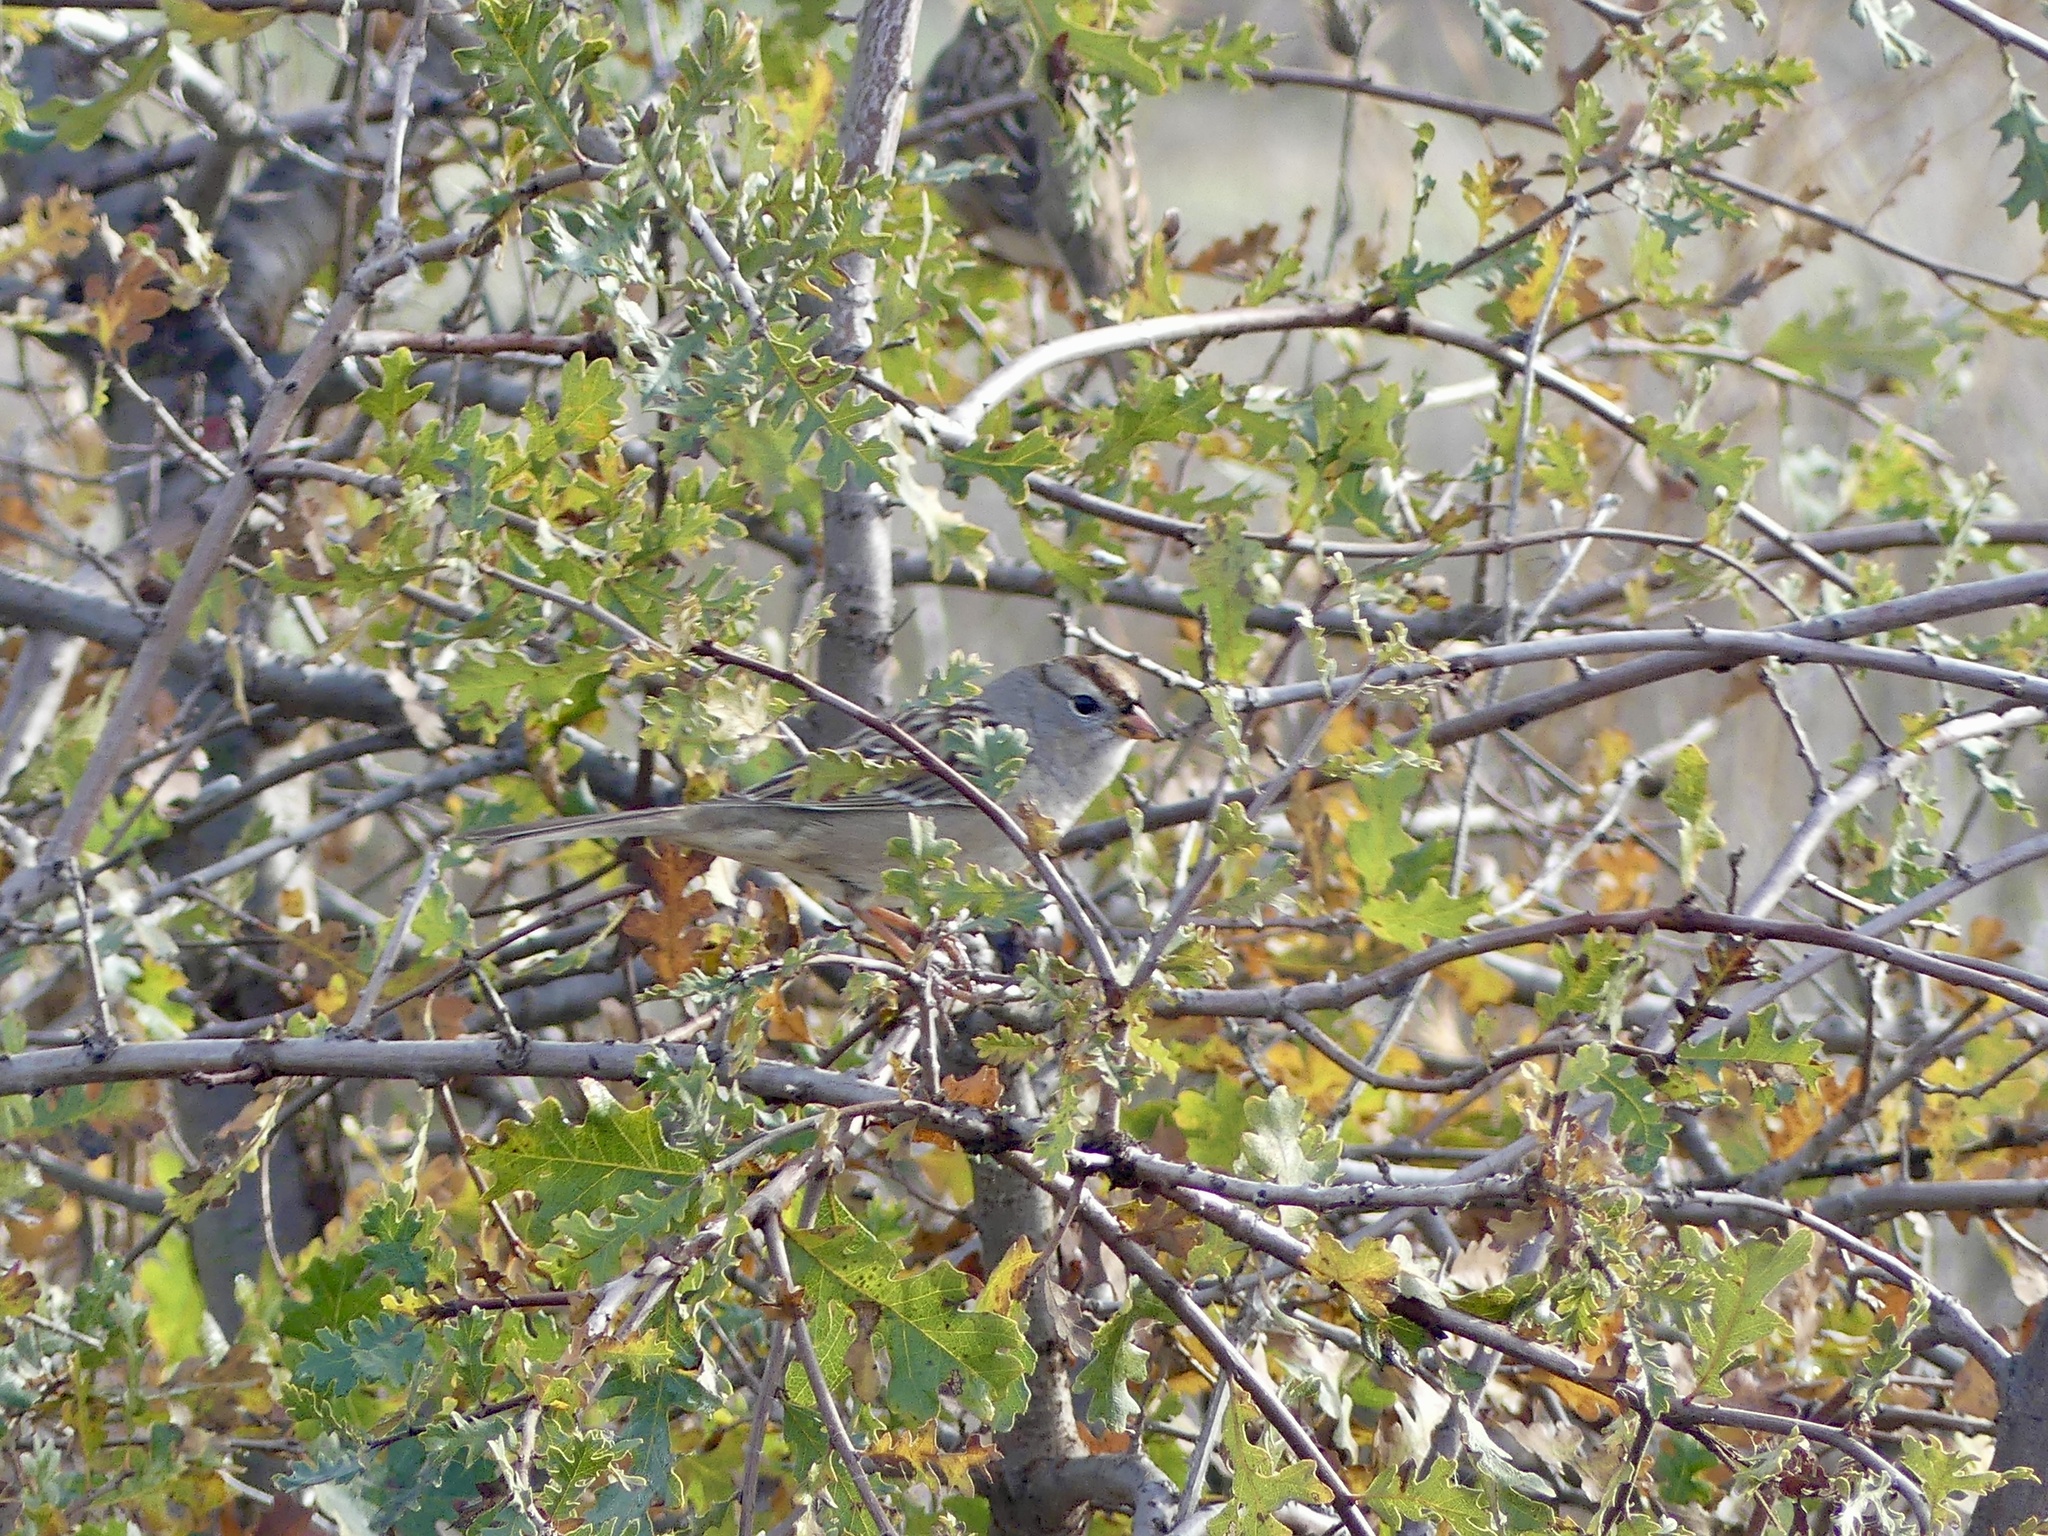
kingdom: Animalia
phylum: Chordata
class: Aves
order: Passeriformes
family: Passerellidae
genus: Zonotrichia
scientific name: Zonotrichia leucophrys
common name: White-crowned sparrow
